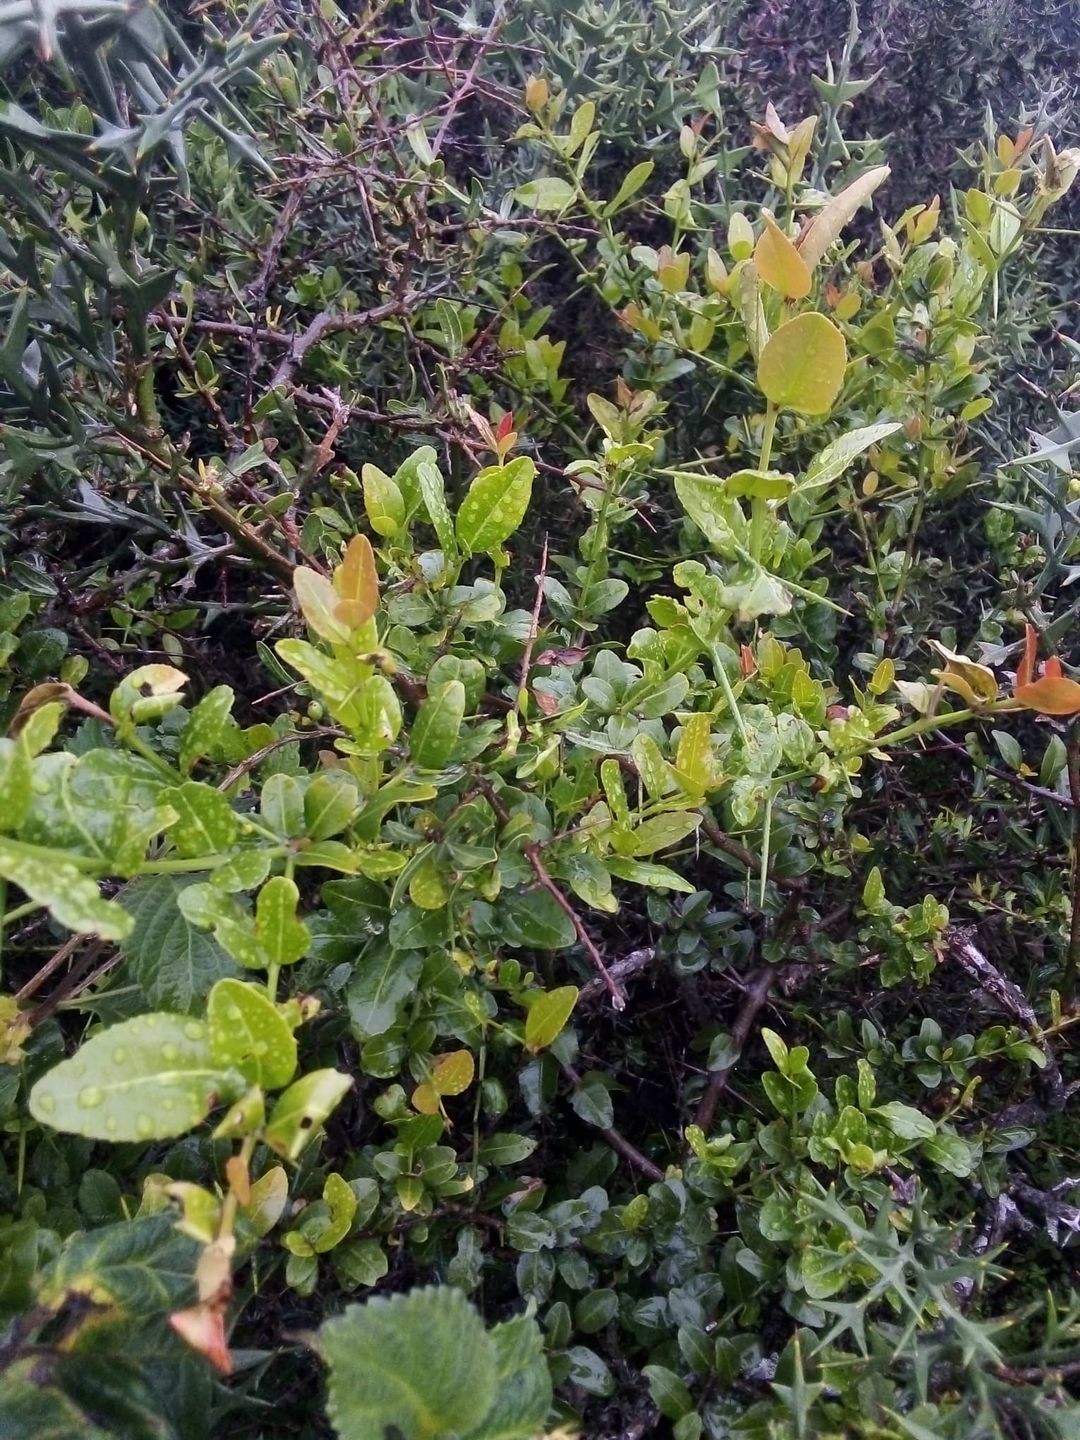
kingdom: Plantae
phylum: Tracheophyta
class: Magnoliopsida
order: Rosales
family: Rhamnaceae
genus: Scutia
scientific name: Scutia buxifolia
